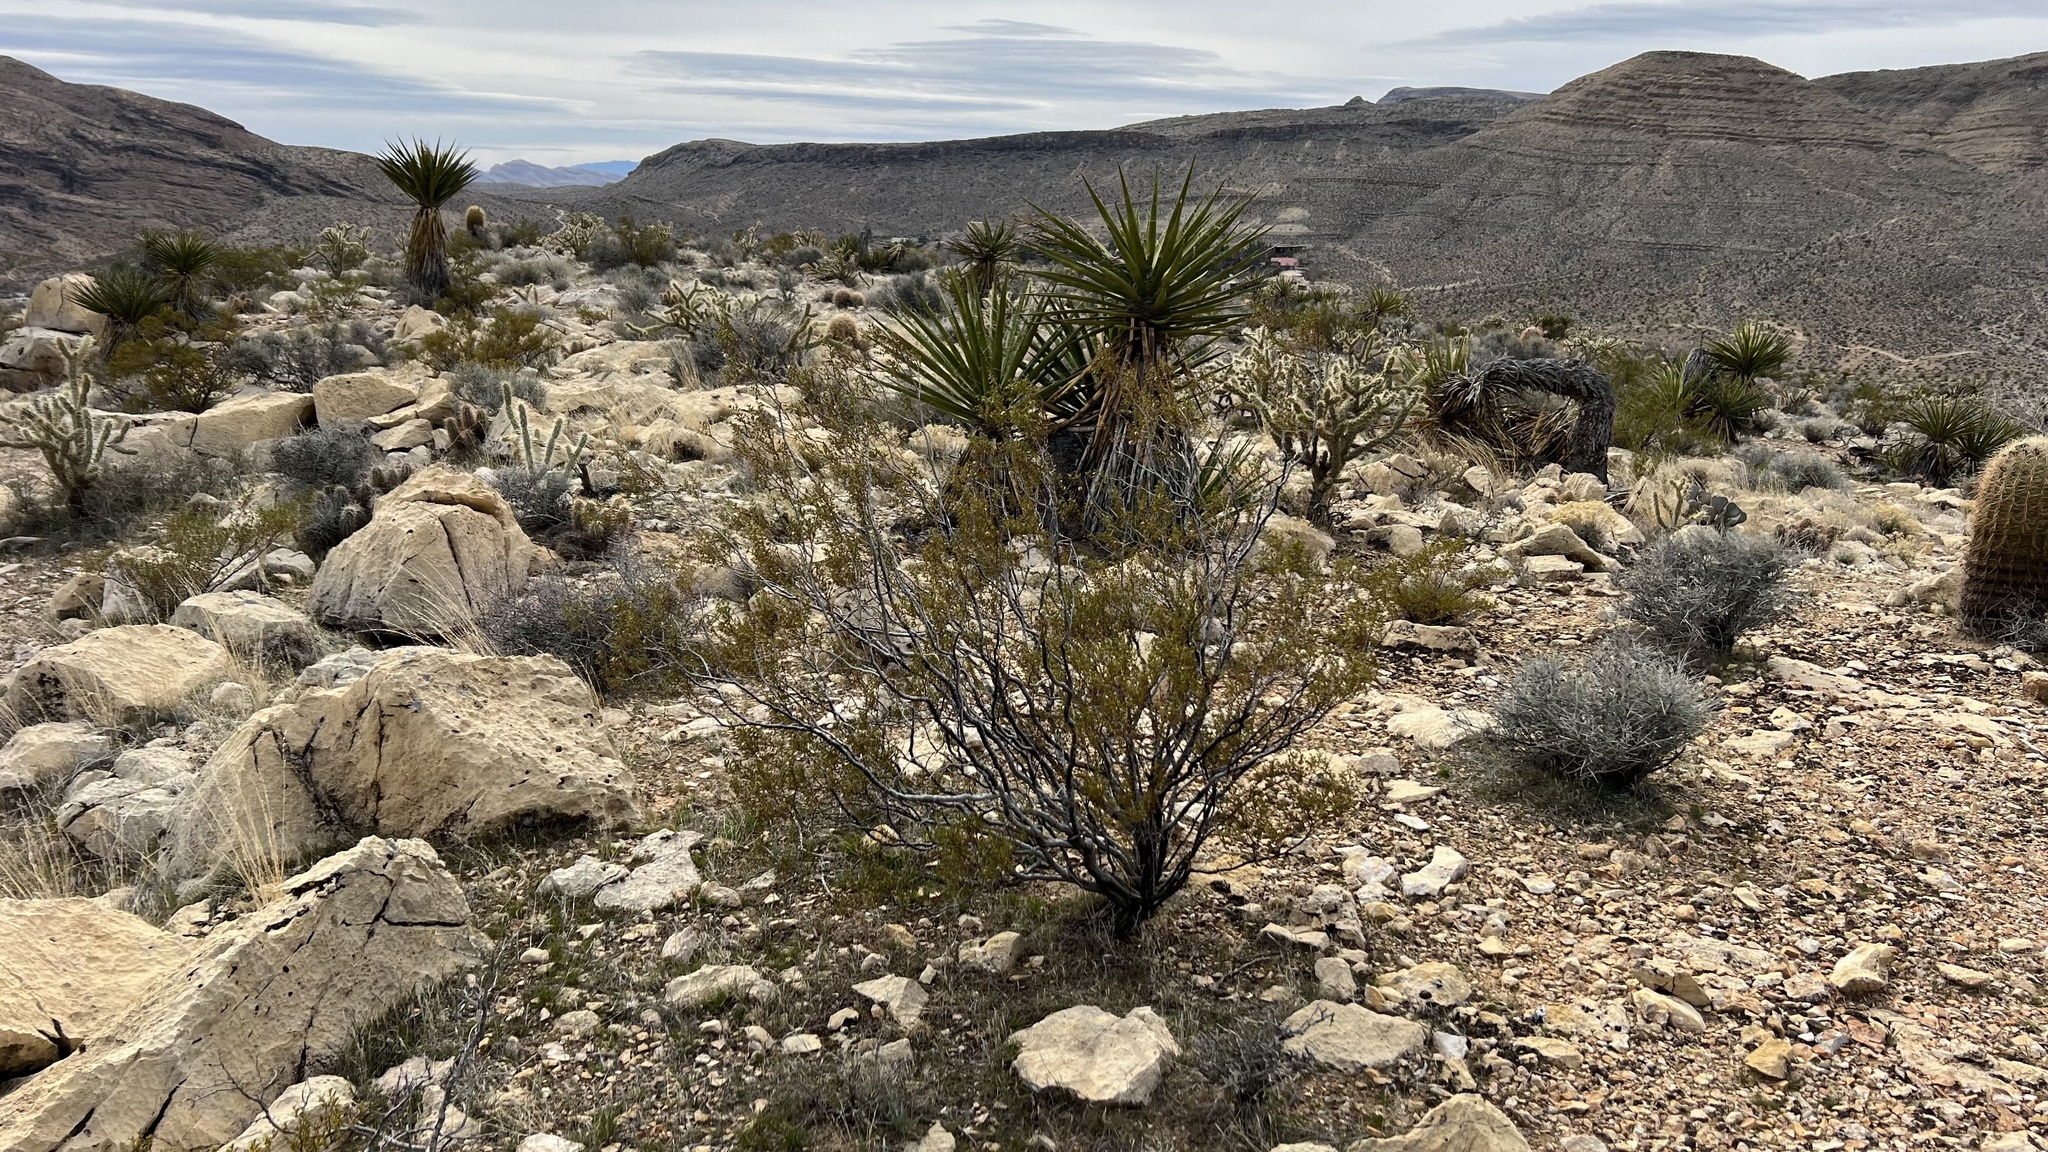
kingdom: Plantae
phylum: Tracheophyta
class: Magnoliopsida
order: Zygophyllales
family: Zygophyllaceae
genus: Larrea
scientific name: Larrea tridentata
